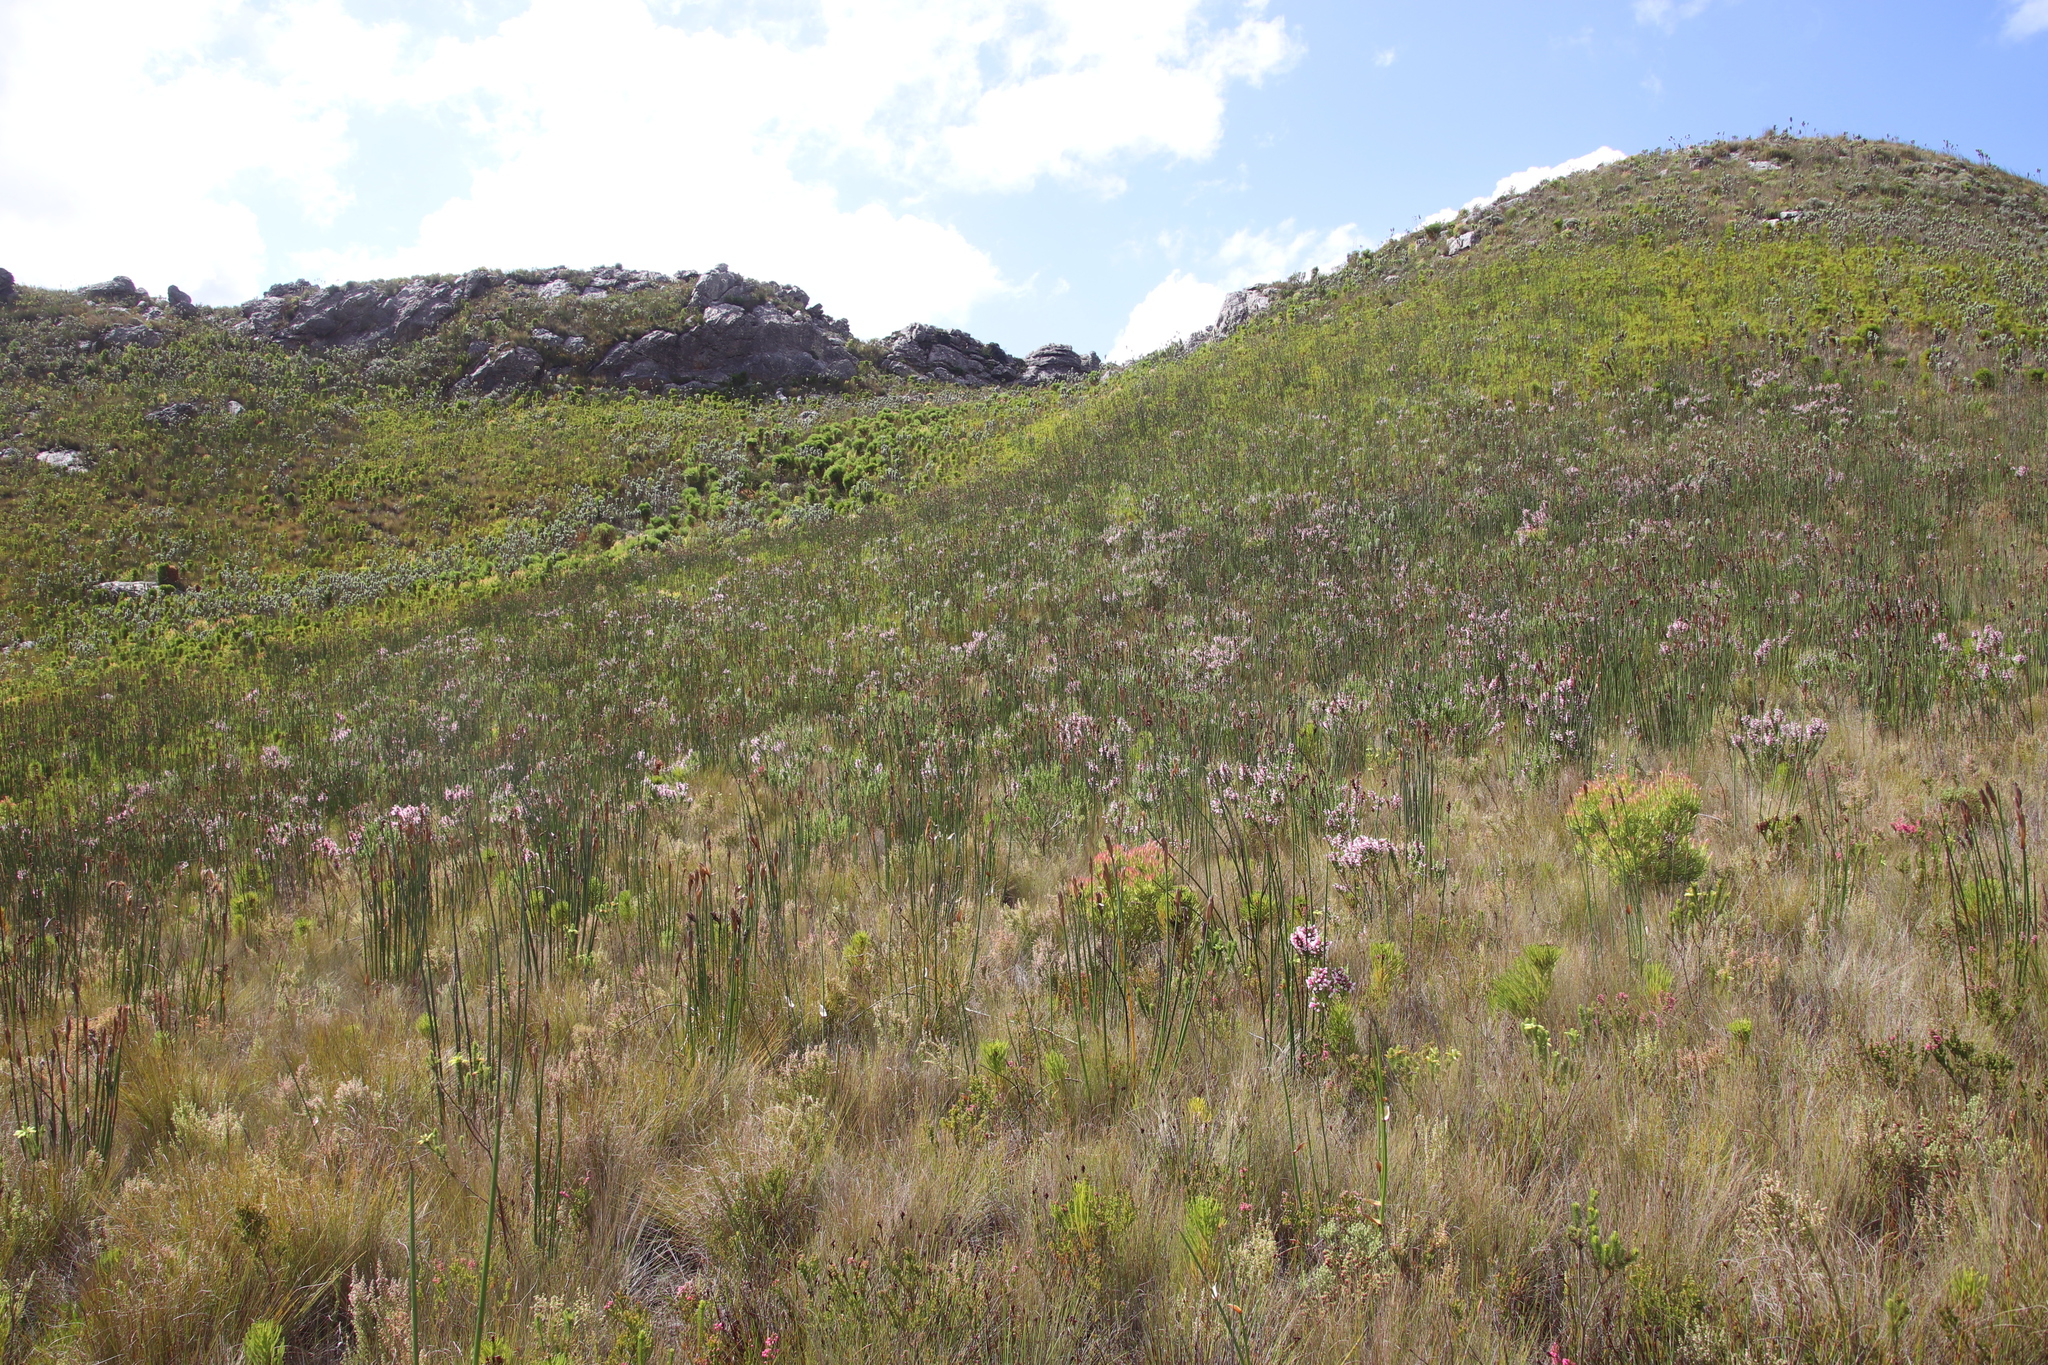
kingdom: Plantae
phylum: Tracheophyta
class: Magnoliopsida
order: Ericales
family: Ericaceae
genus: Erica
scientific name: Erica macowanii
